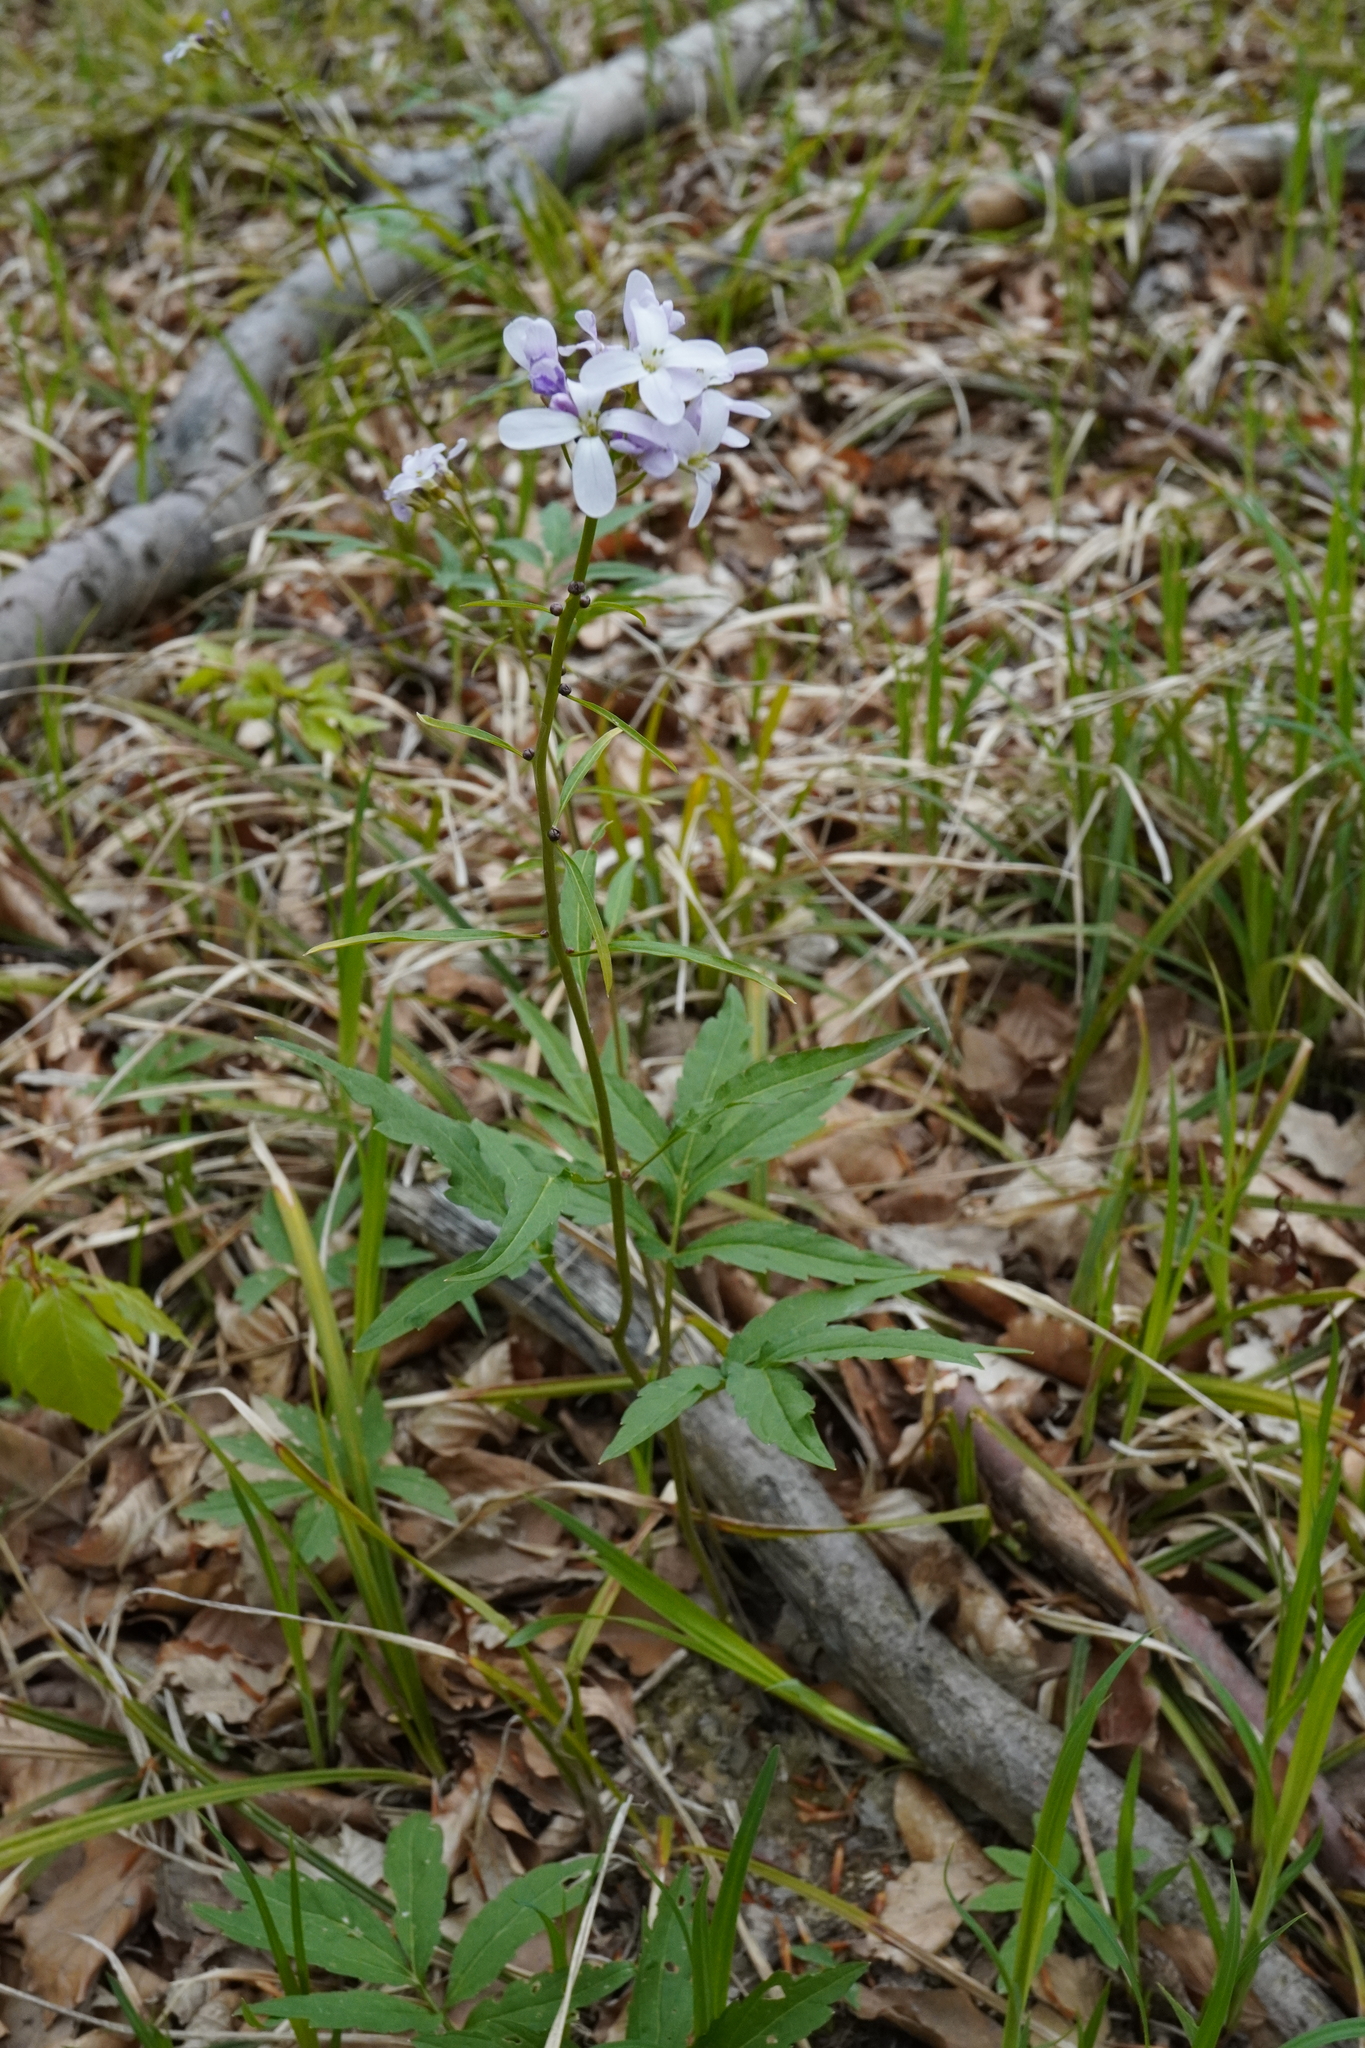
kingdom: Plantae
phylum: Tracheophyta
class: Magnoliopsida
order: Brassicales
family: Brassicaceae
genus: Cardamine
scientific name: Cardamine bulbifera
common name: Coralroot bittercress
